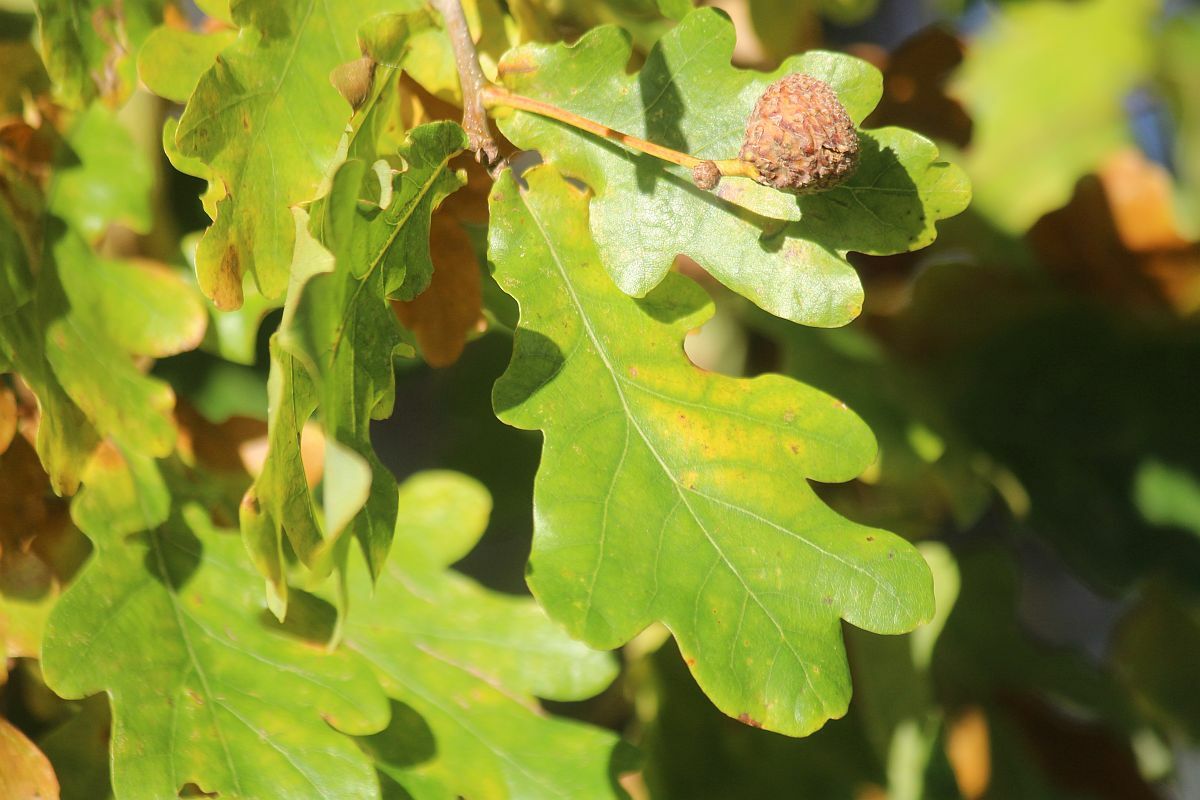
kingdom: Plantae
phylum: Tracheophyta
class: Magnoliopsida
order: Fagales
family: Fagaceae
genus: Quercus
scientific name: Quercus robur
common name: Pedunculate oak
